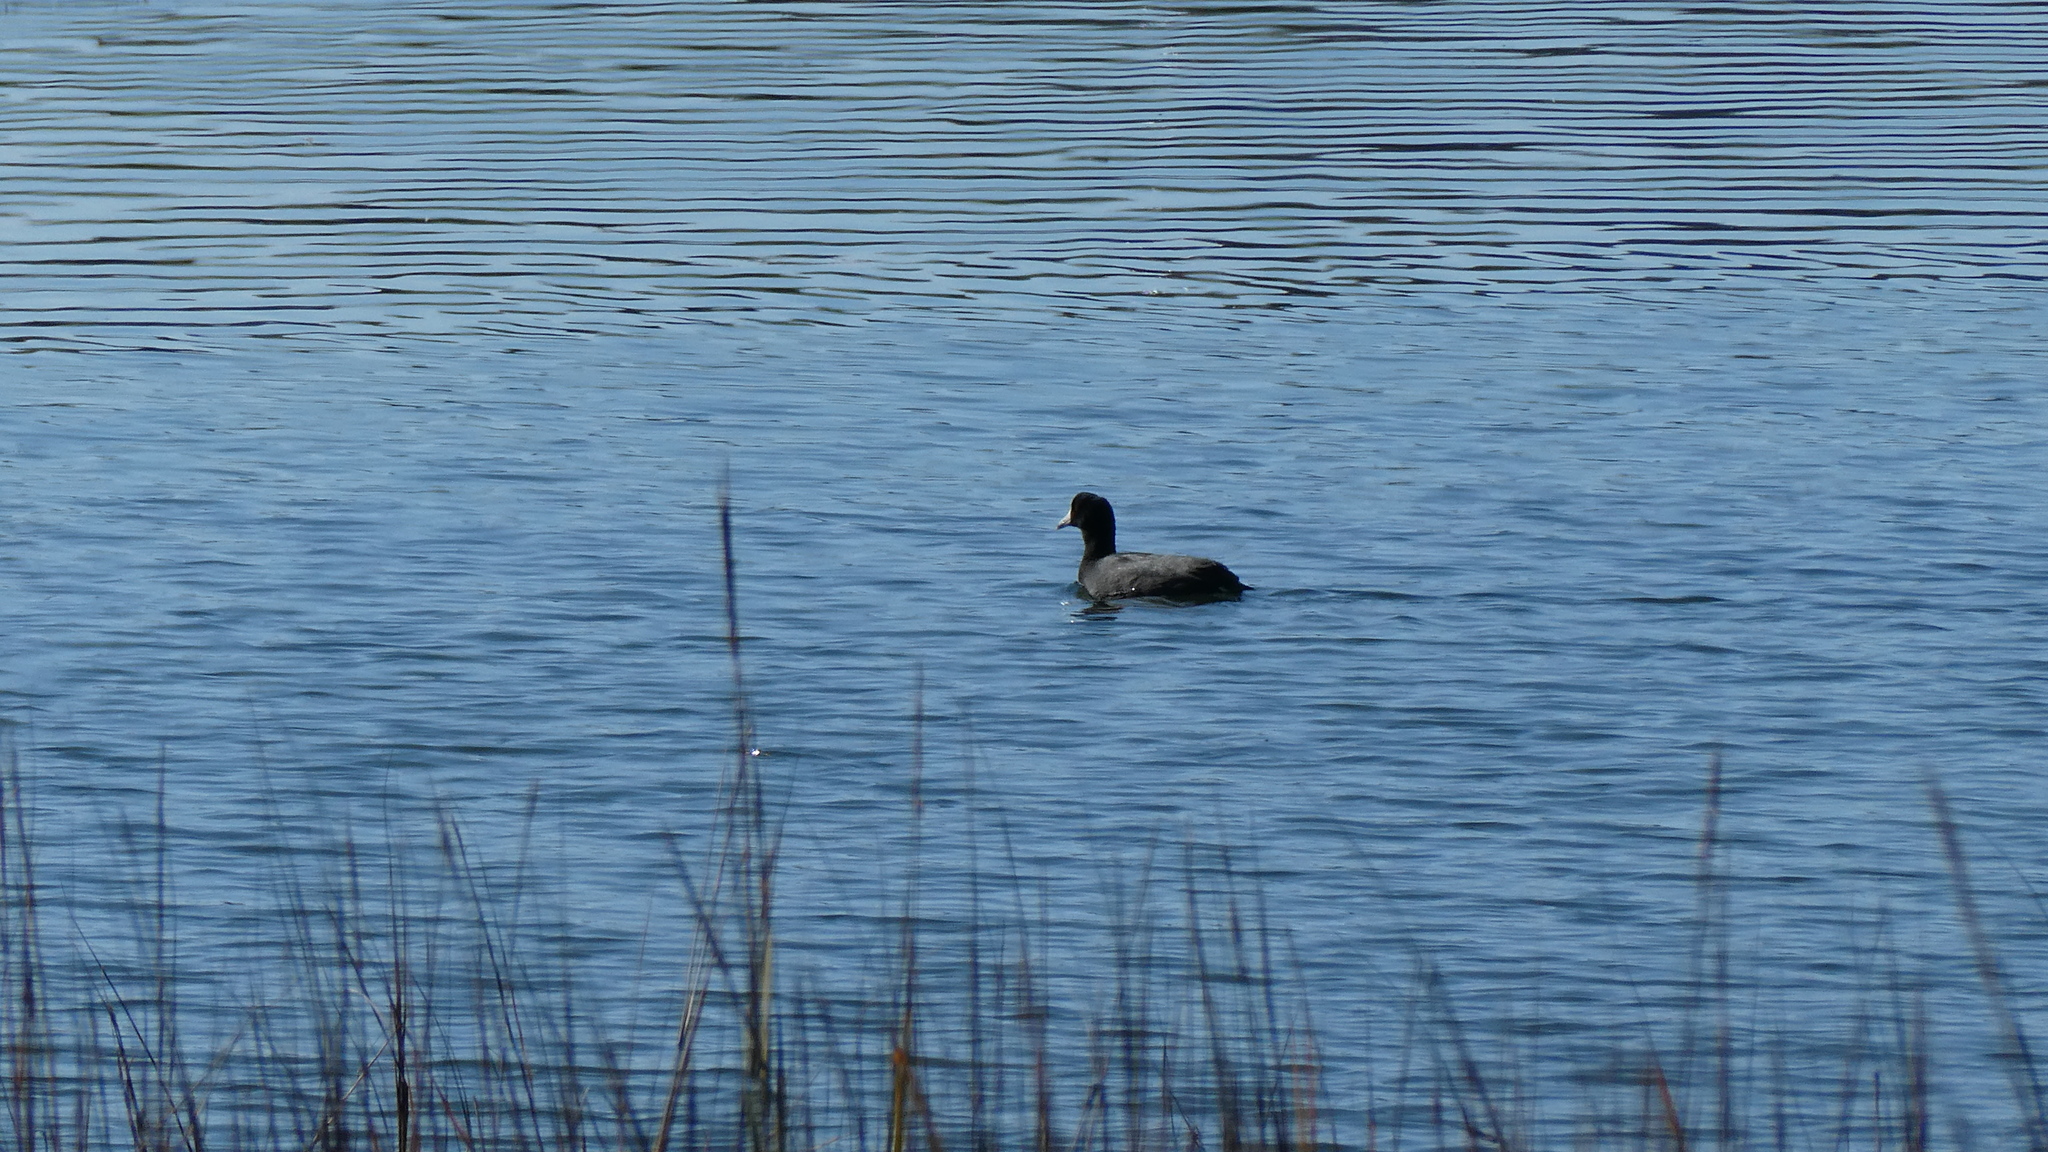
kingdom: Animalia
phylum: Chordata
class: Aves
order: Gruiformes
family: Rallidae
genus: Fulica
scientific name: Fulica americana
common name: American coot
